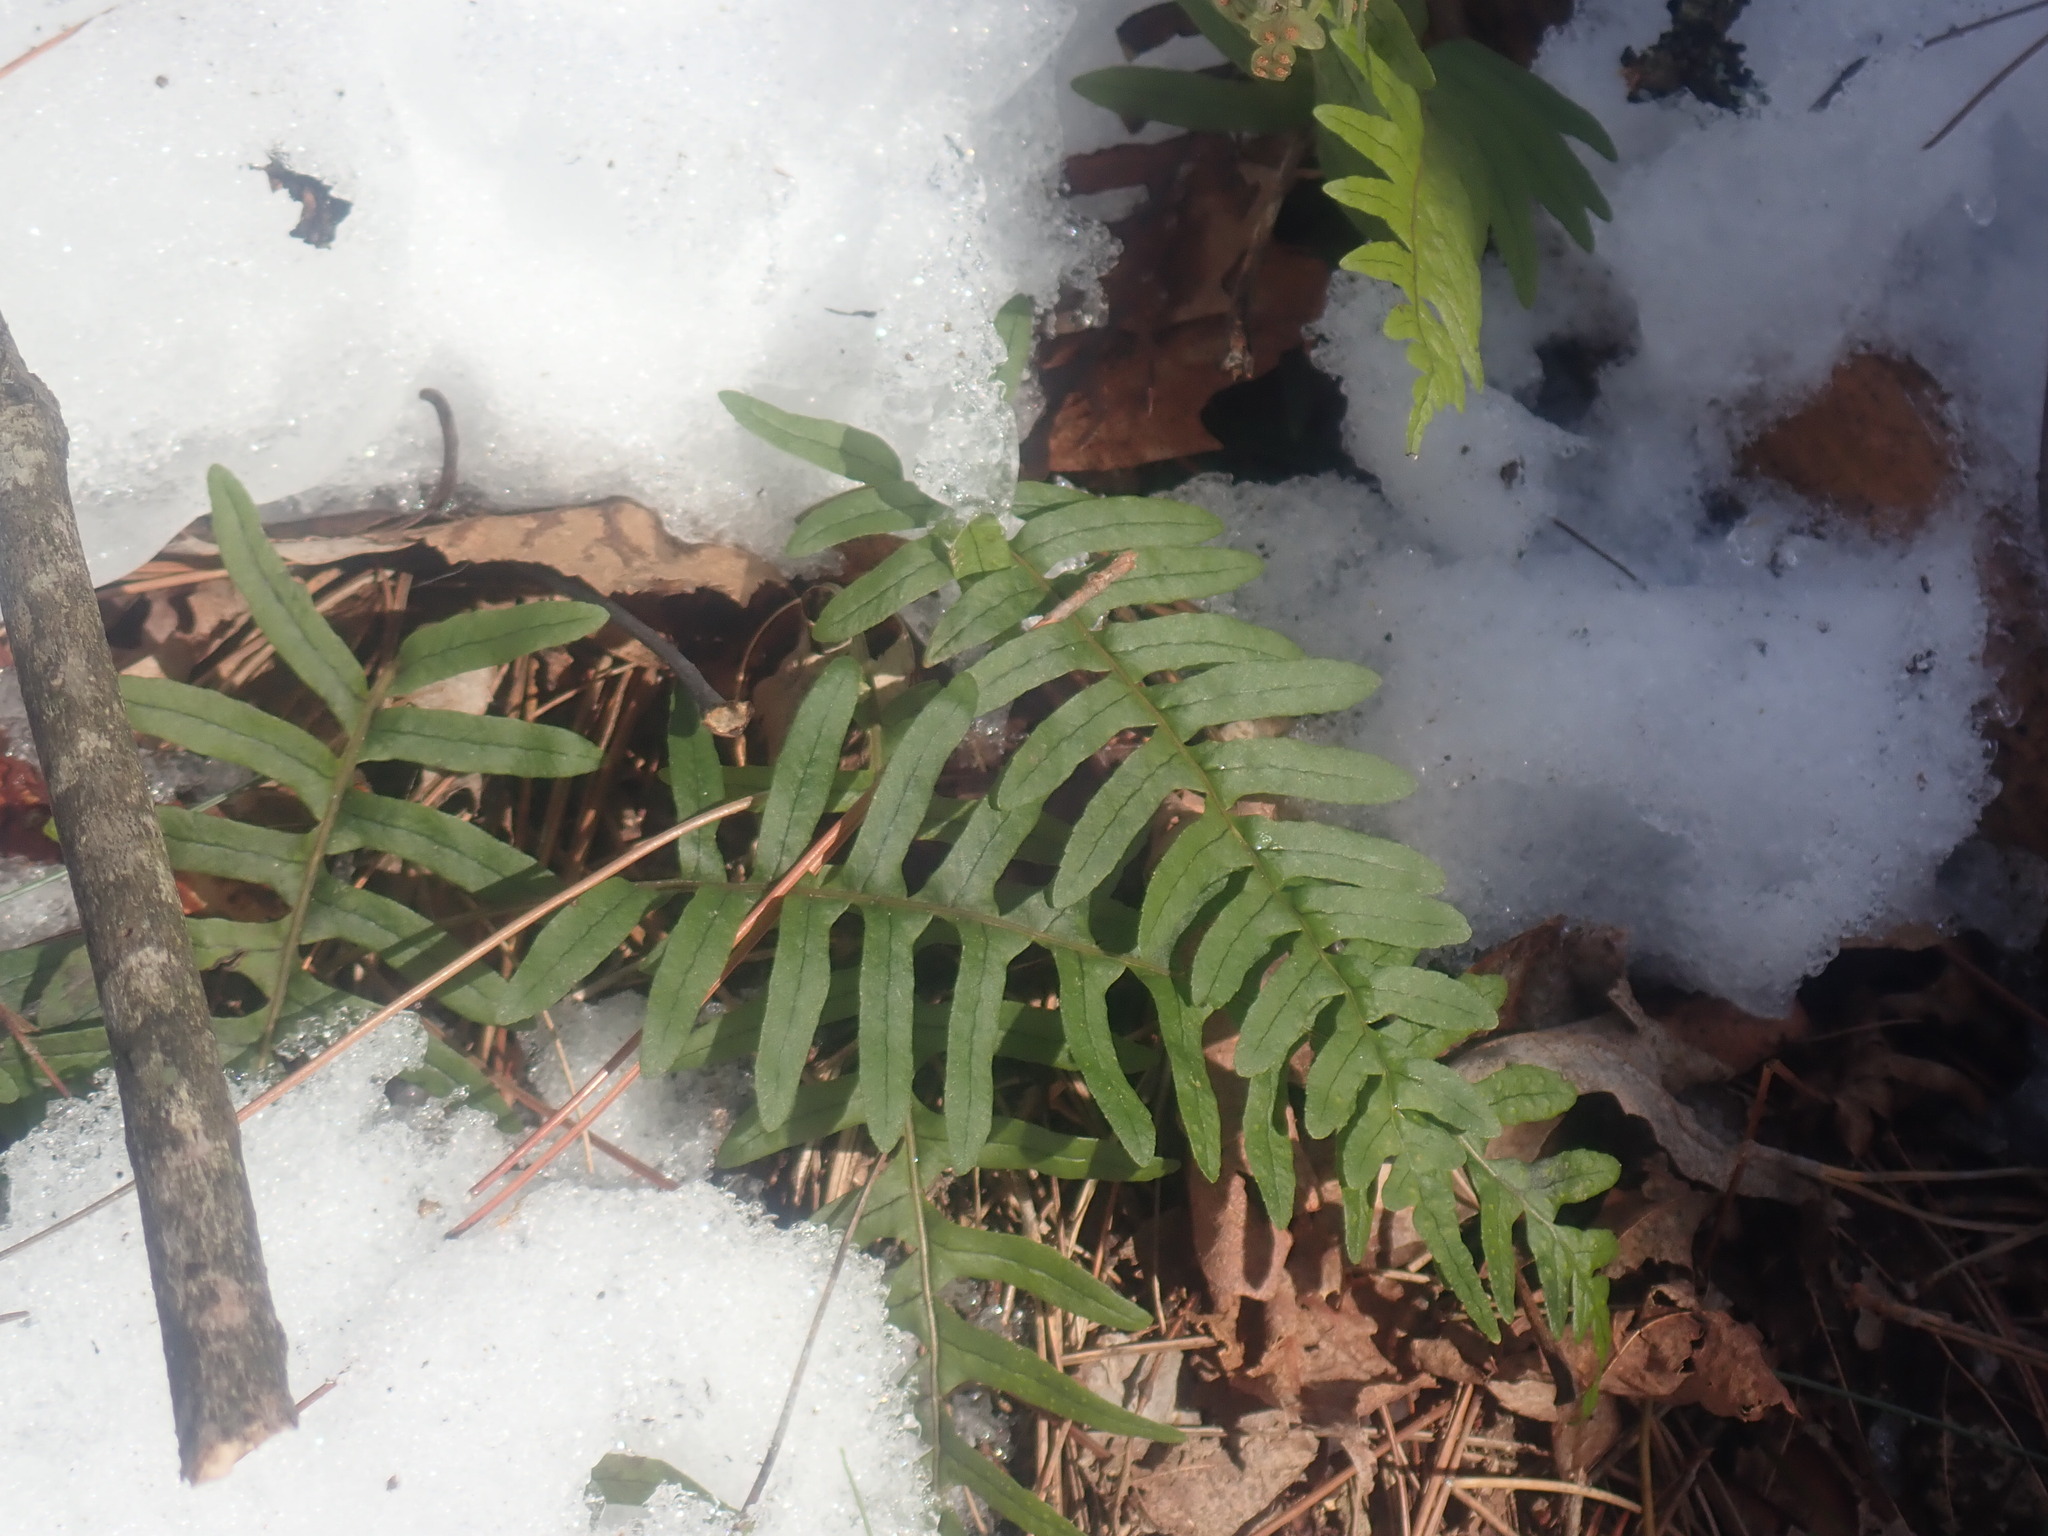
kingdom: Plantae
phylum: Tracheophyta
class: Polypodiopsida
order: Polypodiales
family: Polypodiaceae
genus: Polypodium
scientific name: Polypodium
